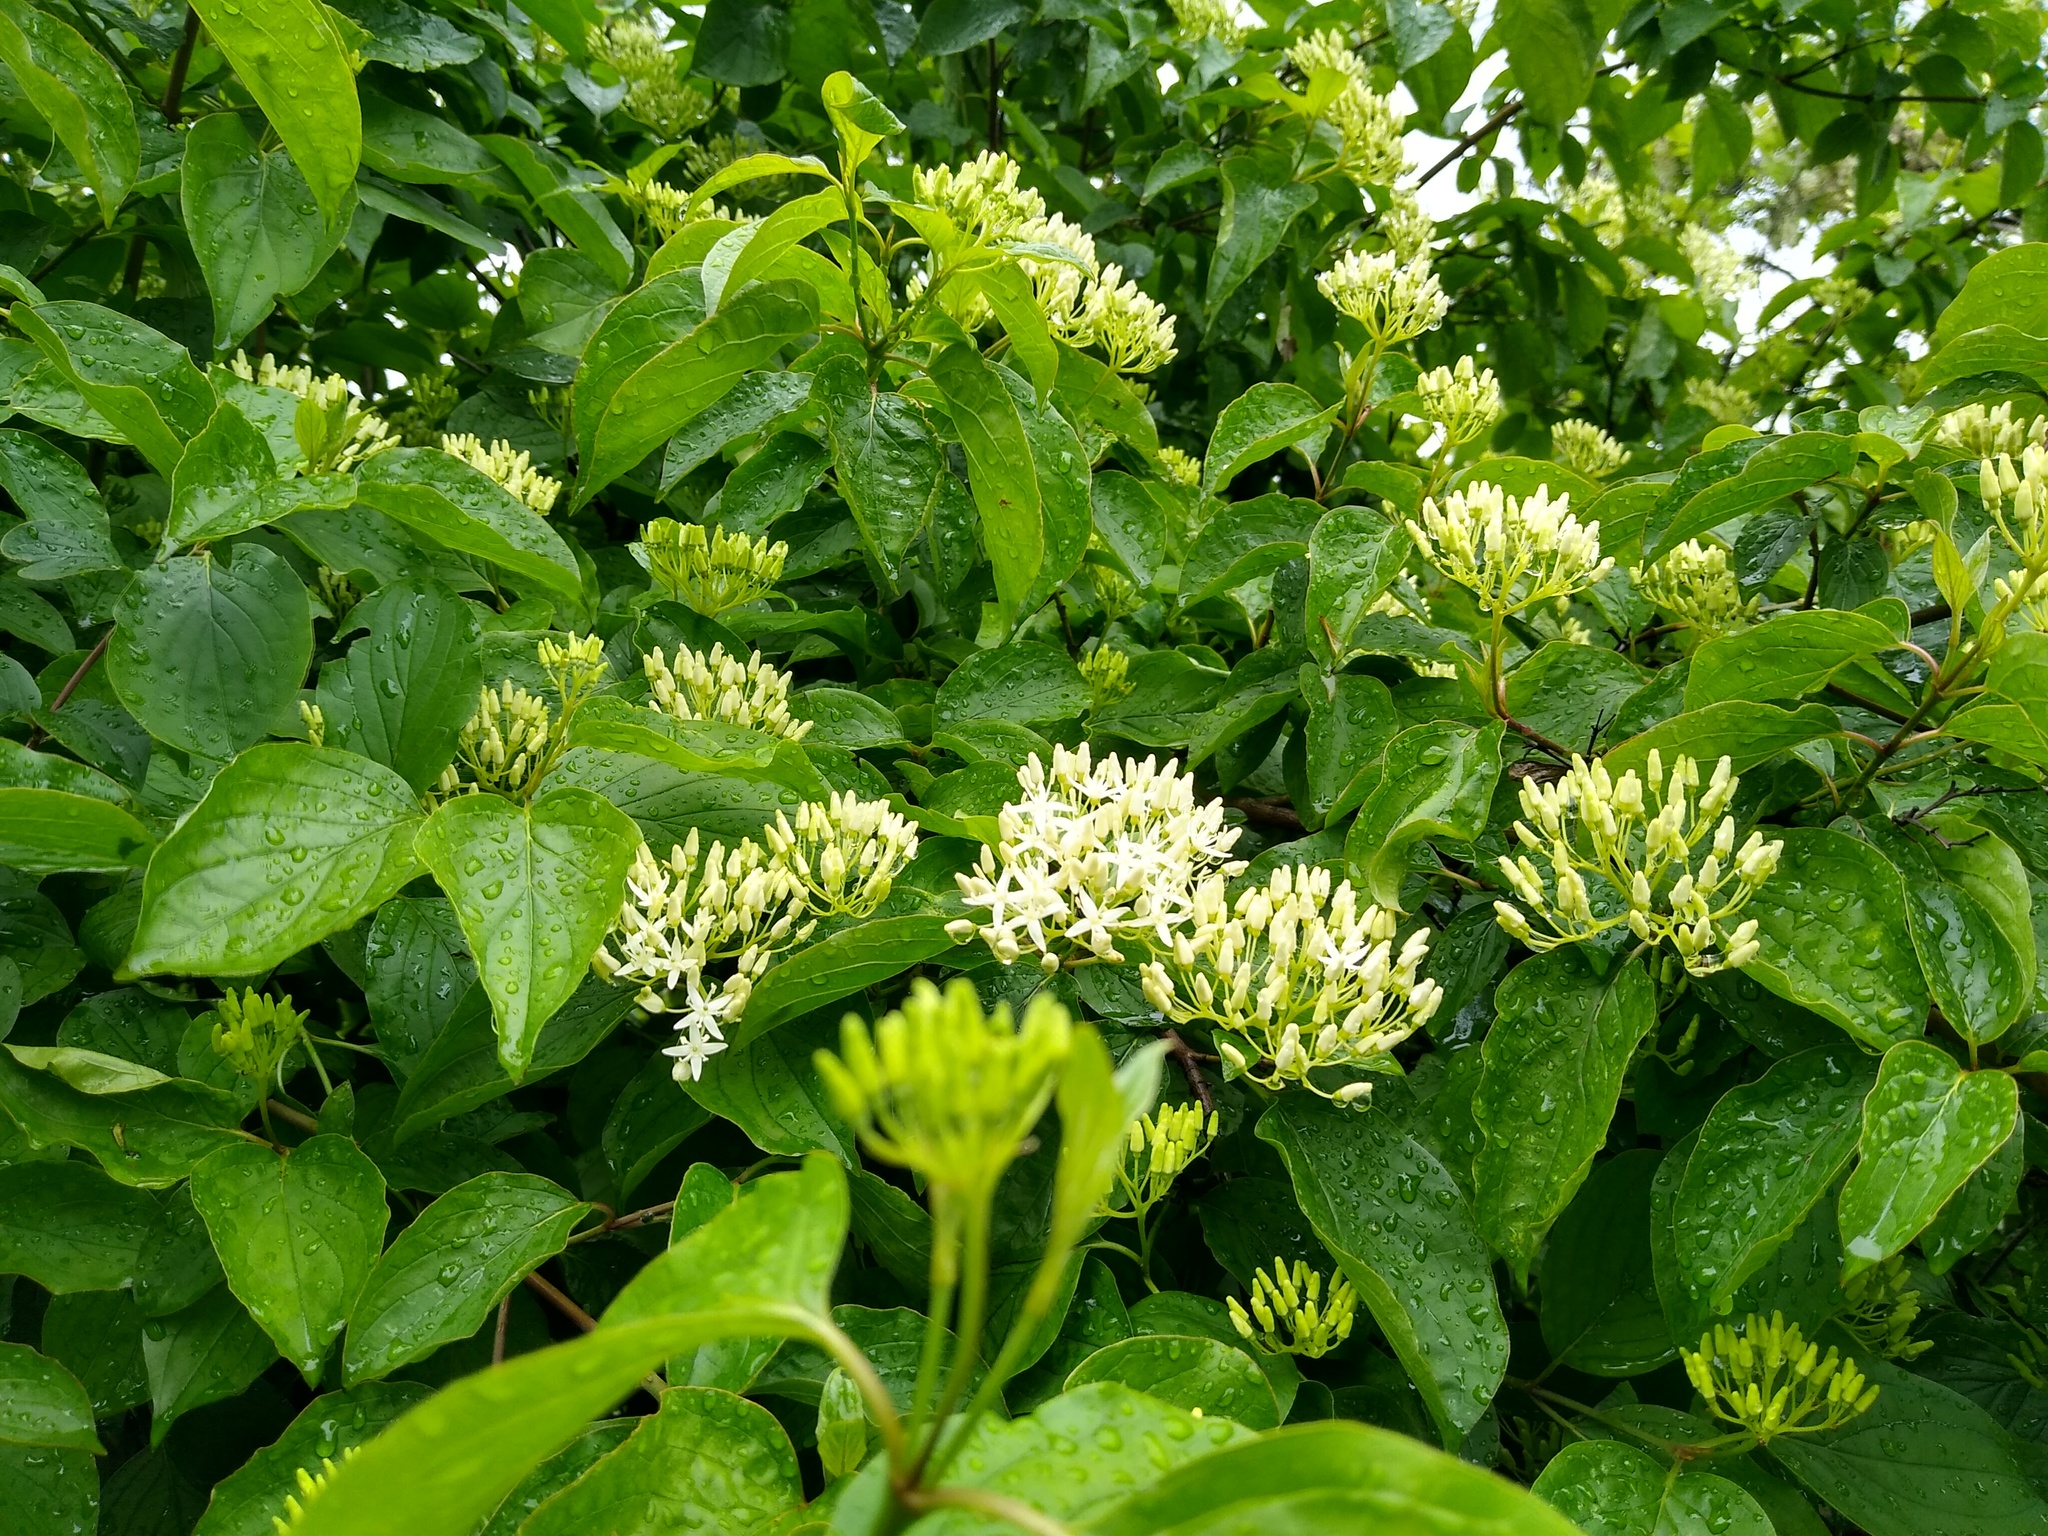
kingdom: Plantae
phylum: Tracheophyta
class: Magnoliopsida
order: Cornales
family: Cornaceae
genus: Cornus
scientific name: Cornus sanguinea
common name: Dogwood
